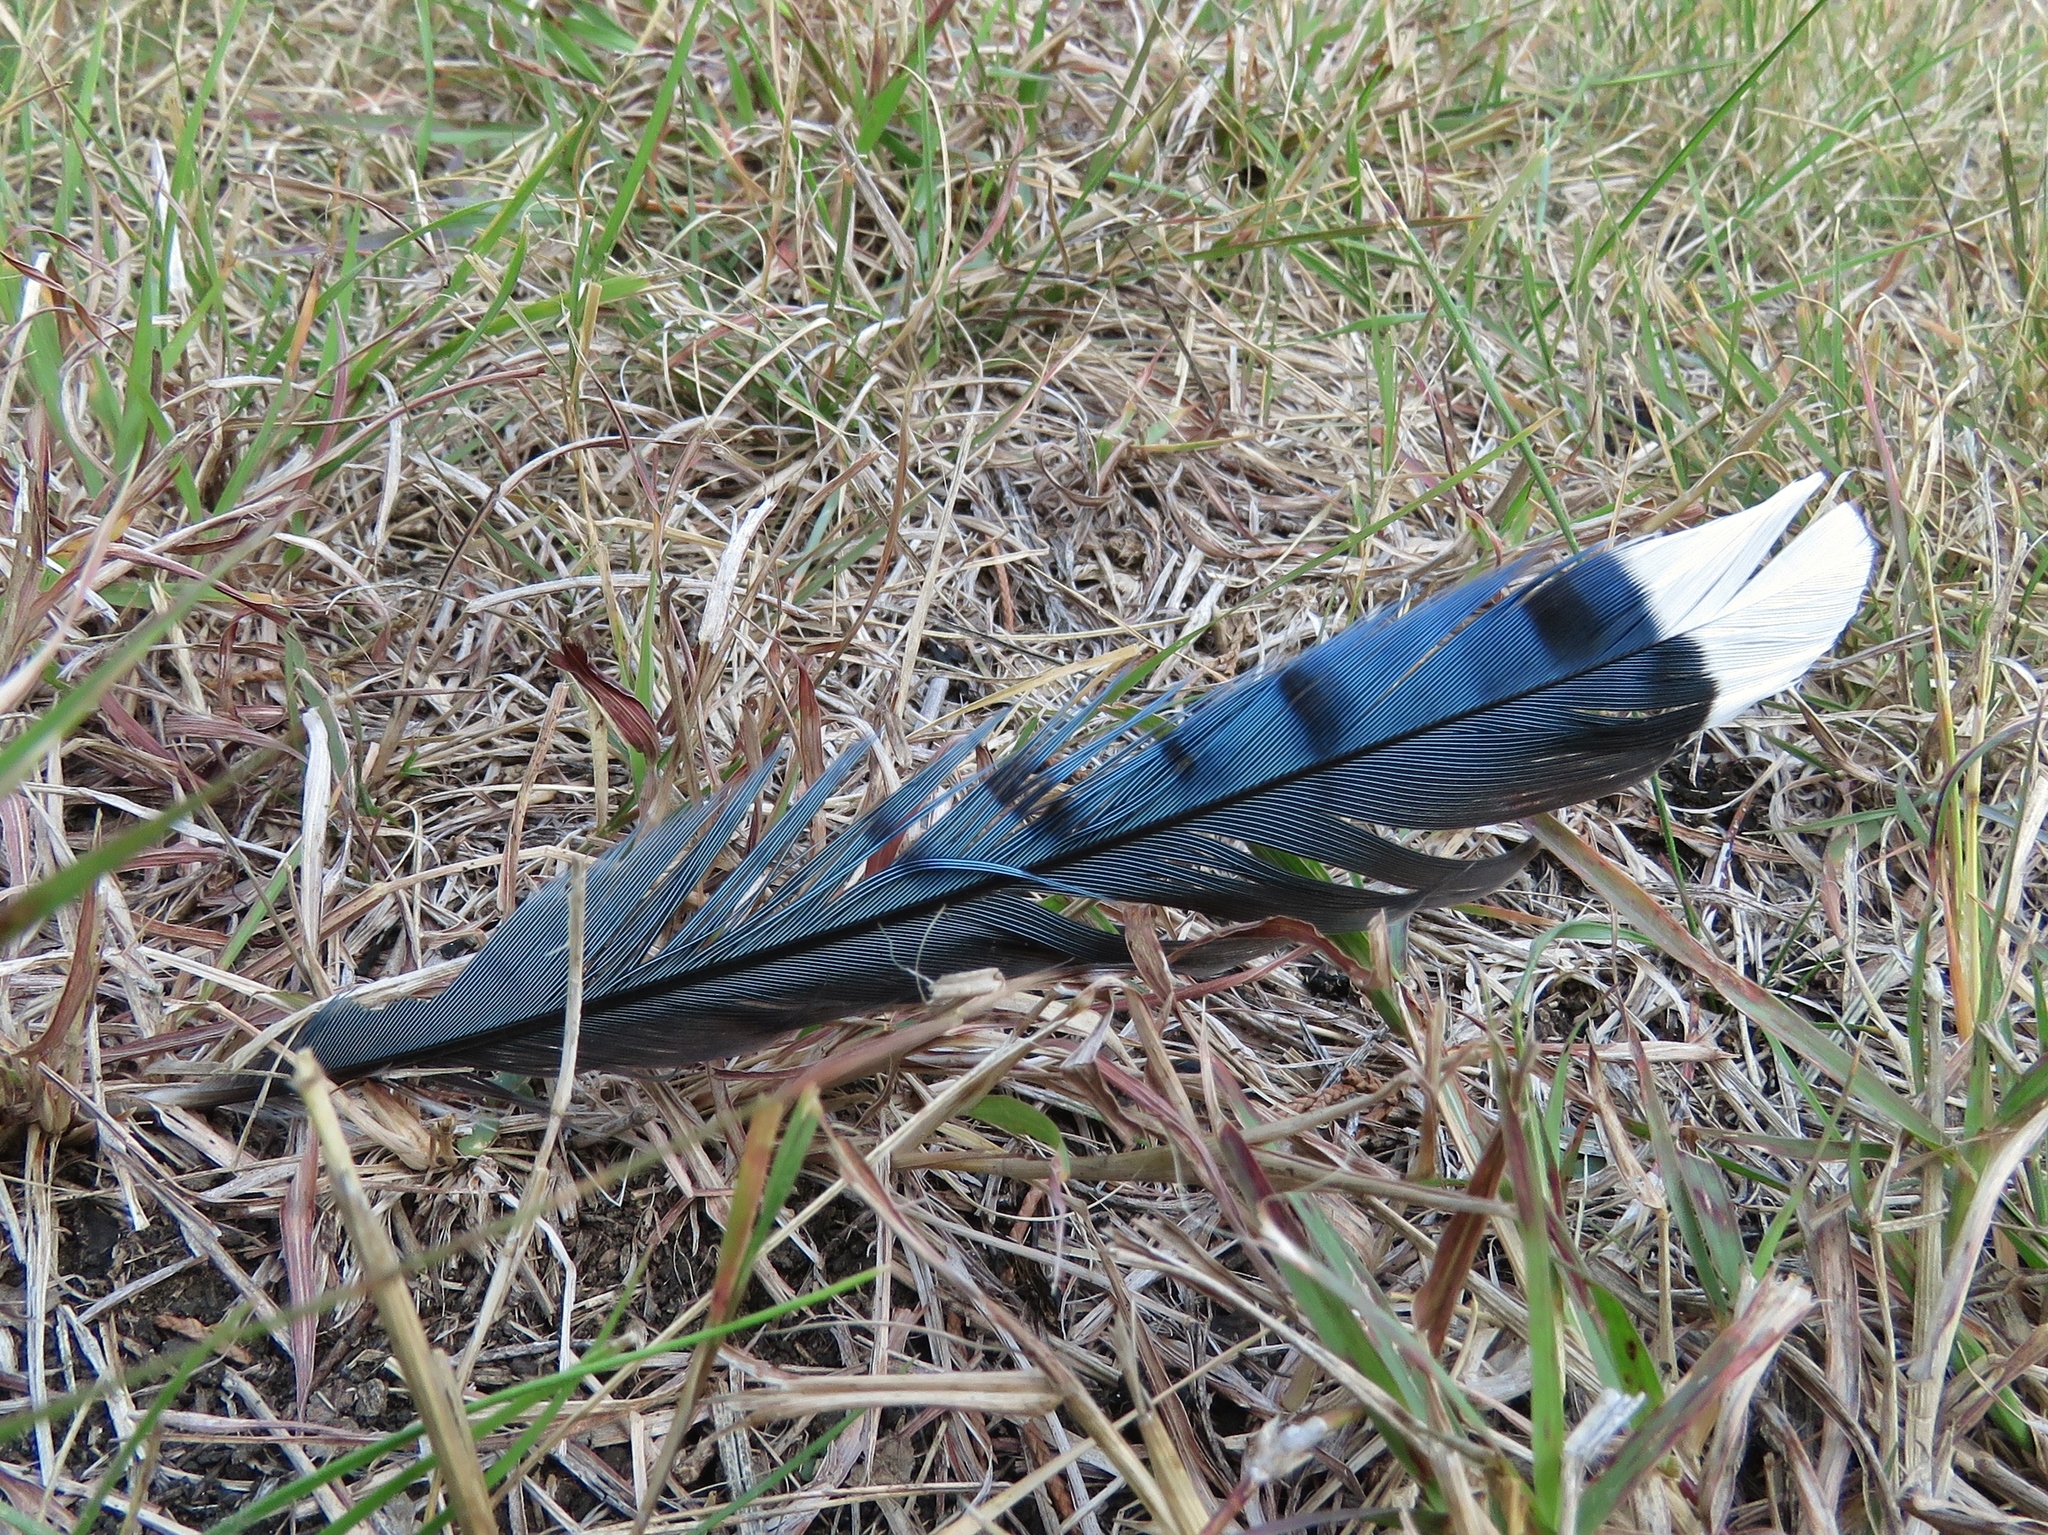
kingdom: Animalia
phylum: Chordata
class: Aves
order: Passeriformes
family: Corvidae
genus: Cyanocitta
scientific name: Cyanocitta cristata
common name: Blue jay
